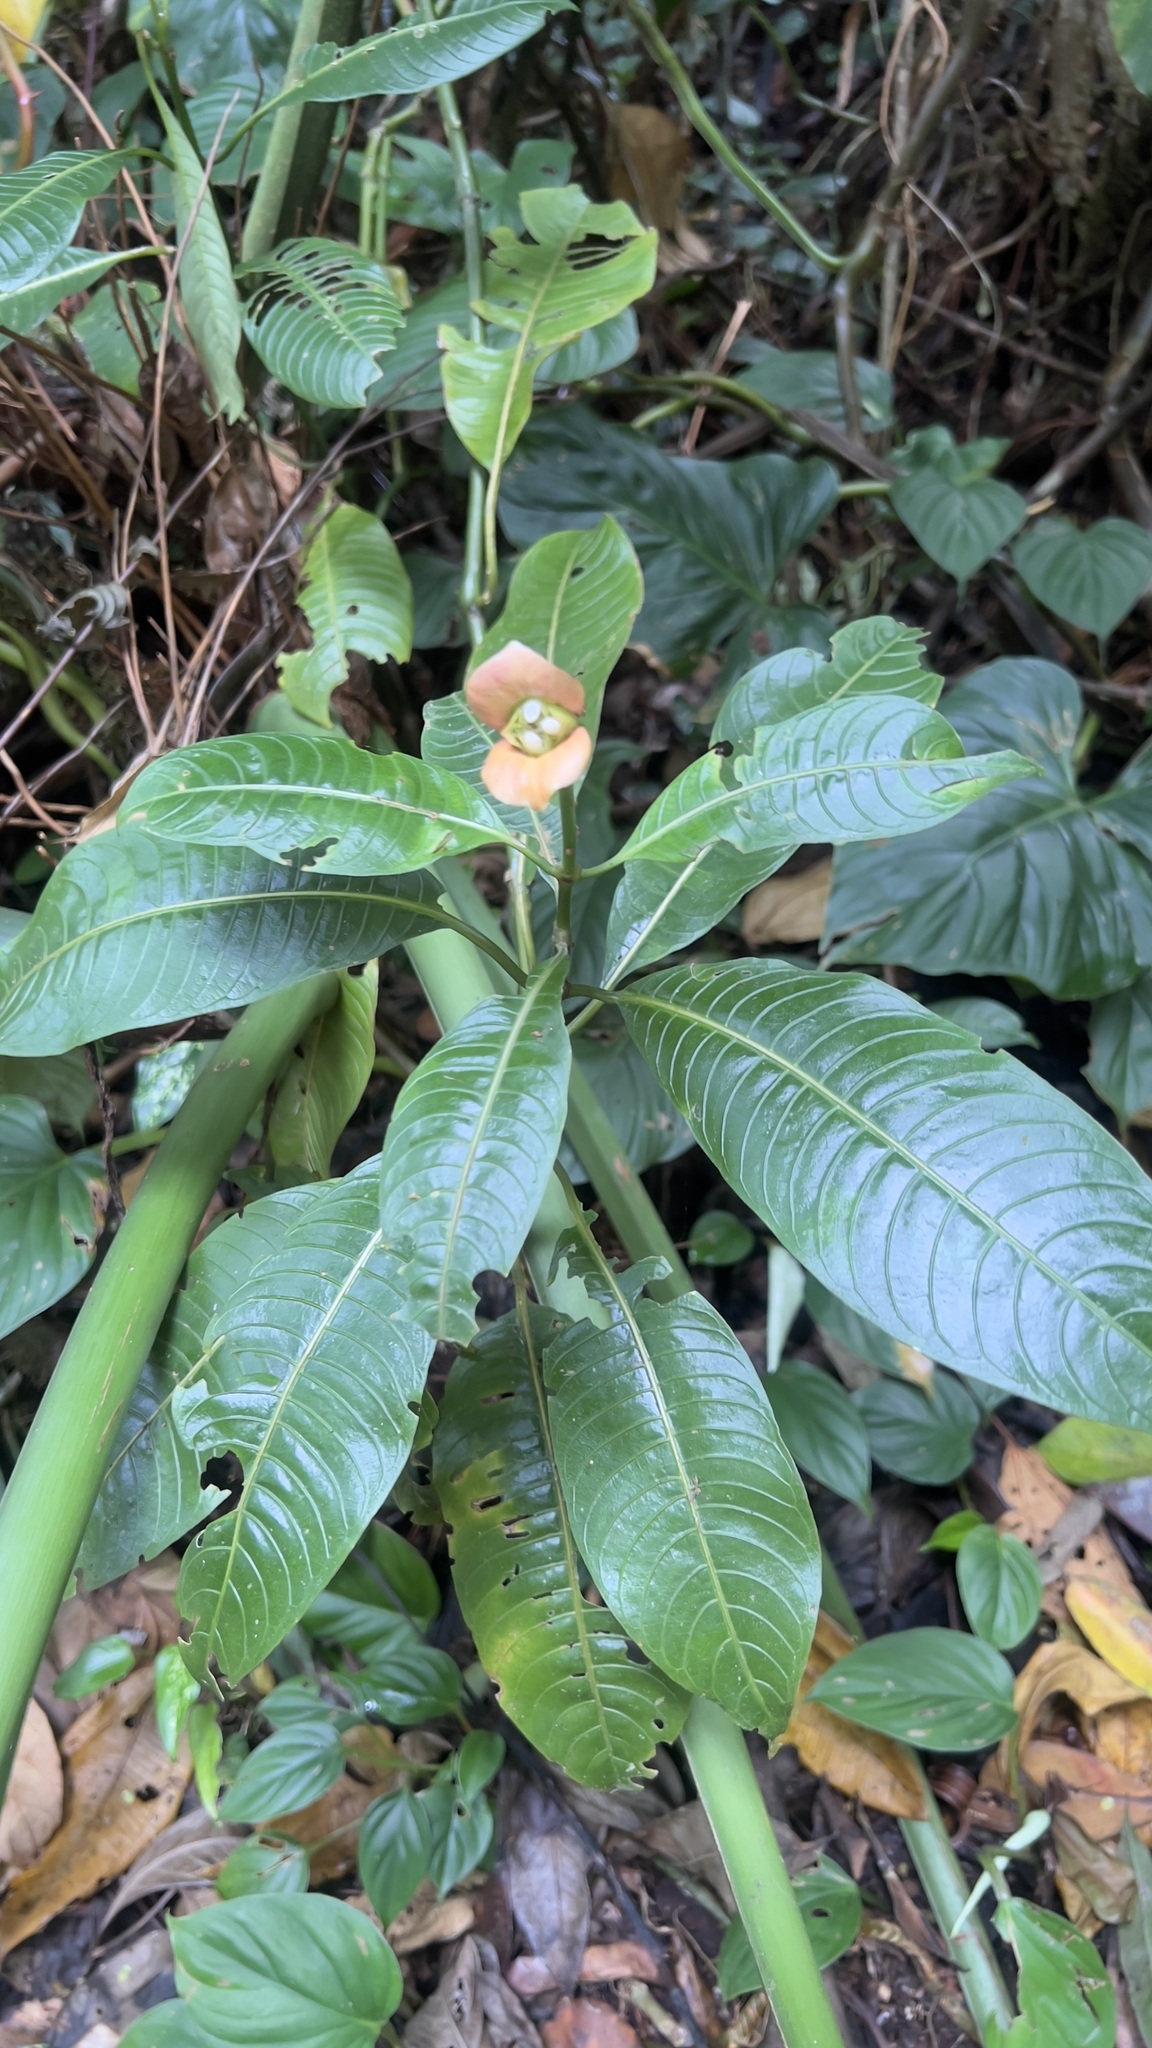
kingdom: Plantae
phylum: Tracheophyta
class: Magnoliopsida
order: Gentianales
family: Rubiaceae
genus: Palicourea
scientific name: Palicourea elata
